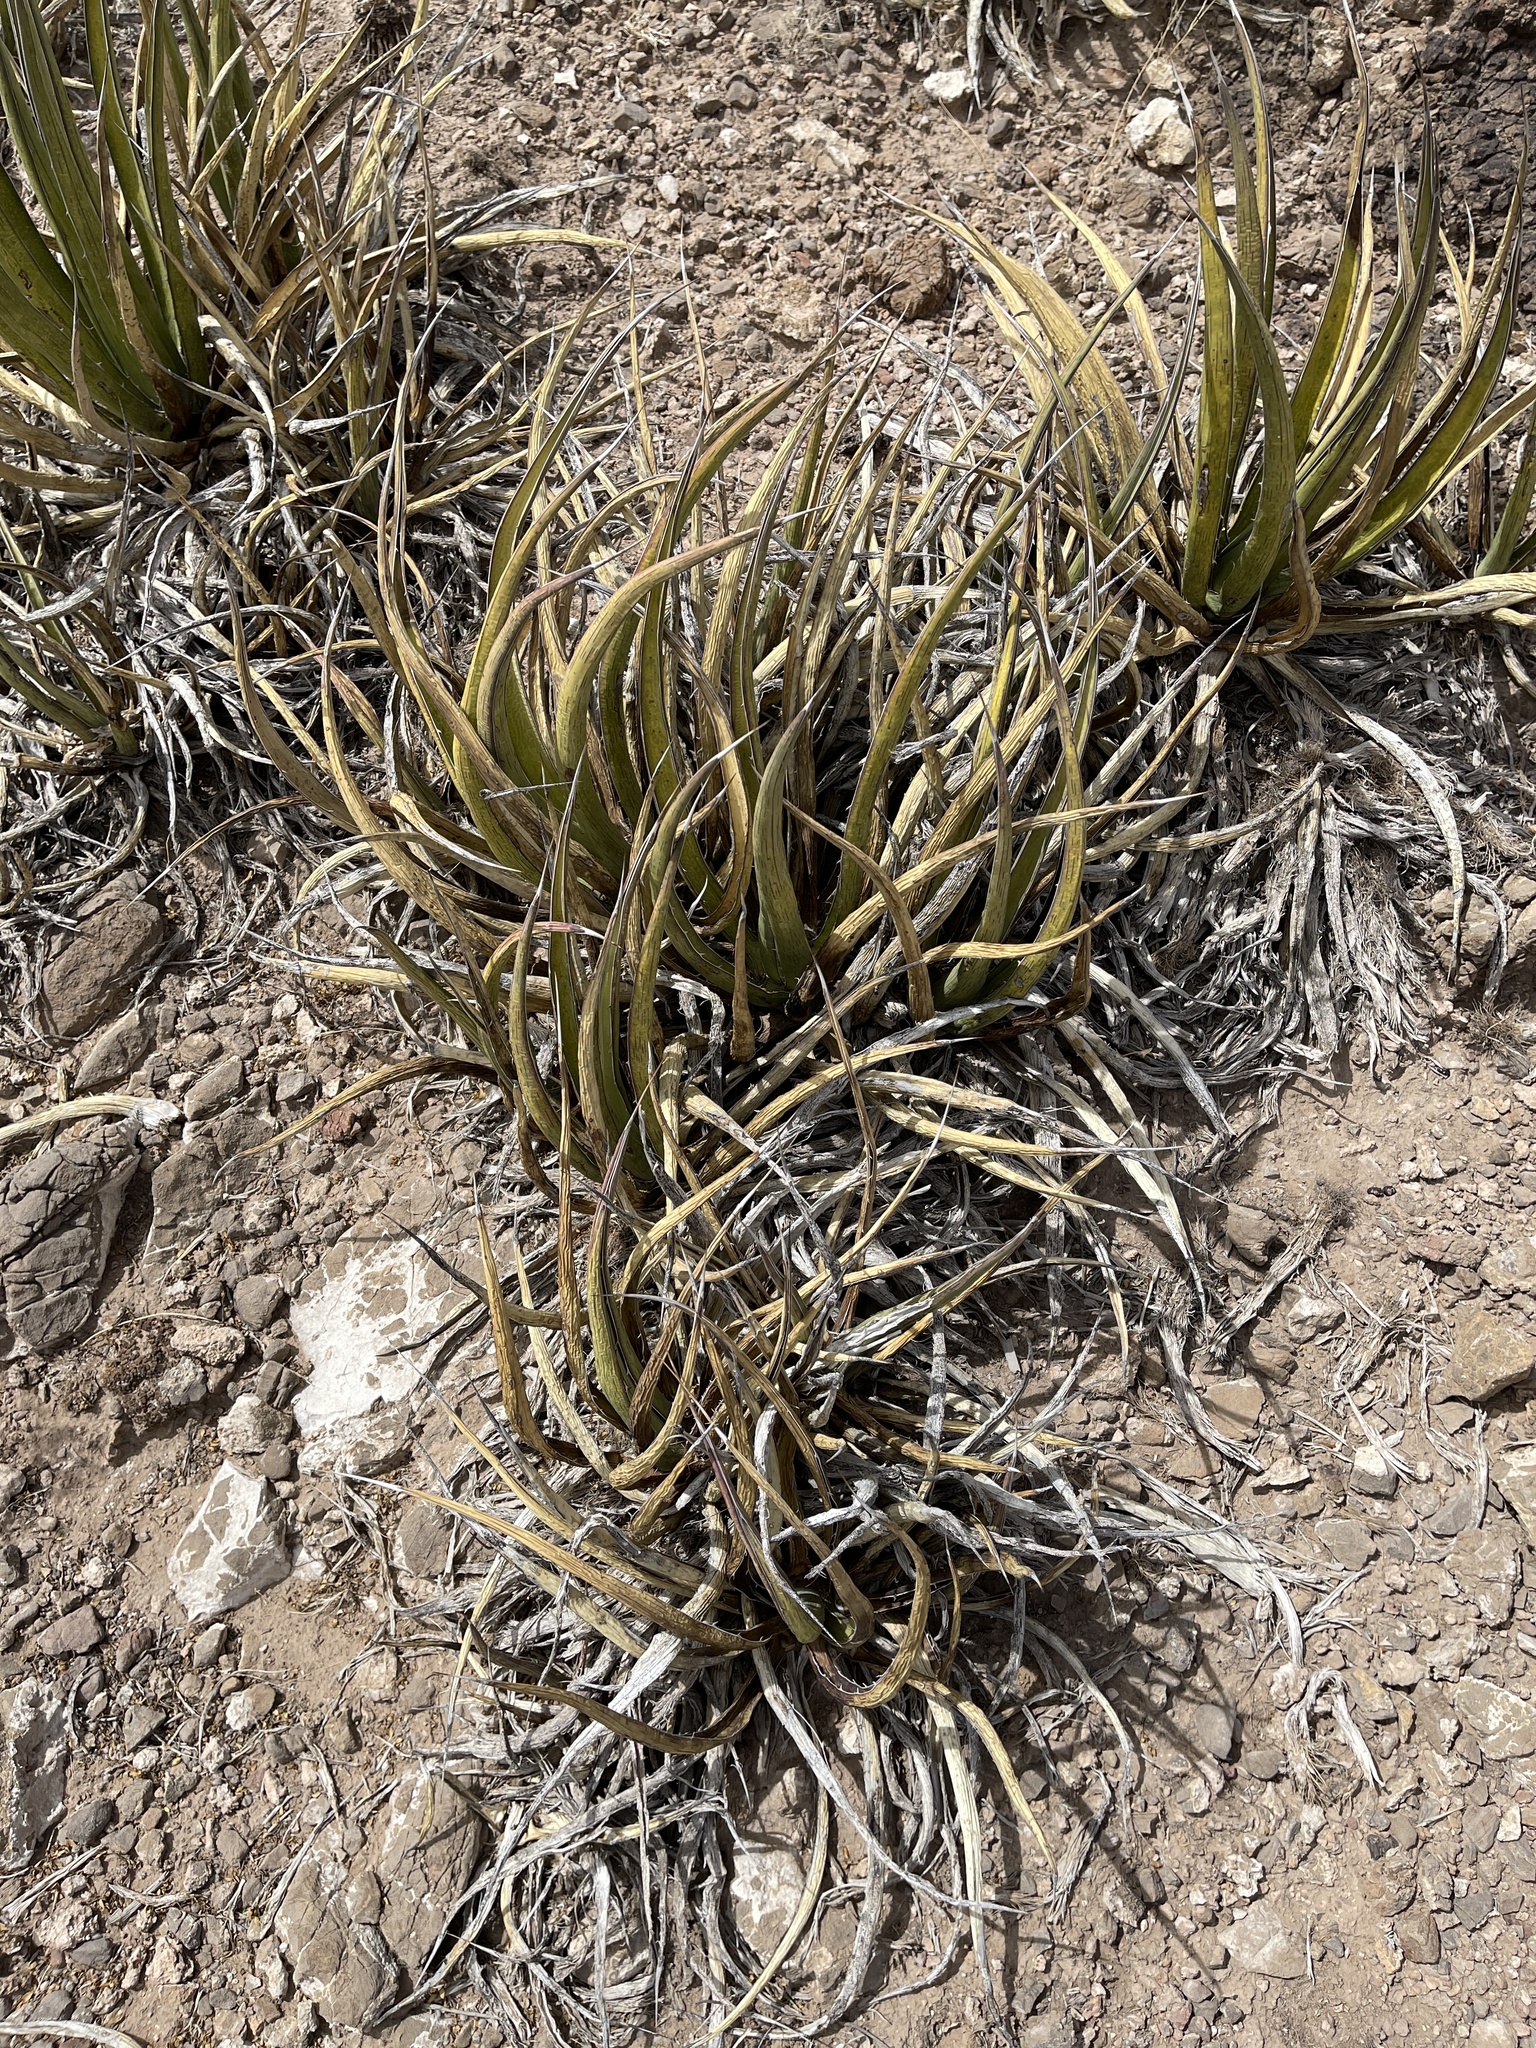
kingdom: Plantae
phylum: Tracheophyta
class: Liliopsida
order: Asparagales
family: Asparagaceae
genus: Agave
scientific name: Agave lechuguilla
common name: Lecheguilla agave
